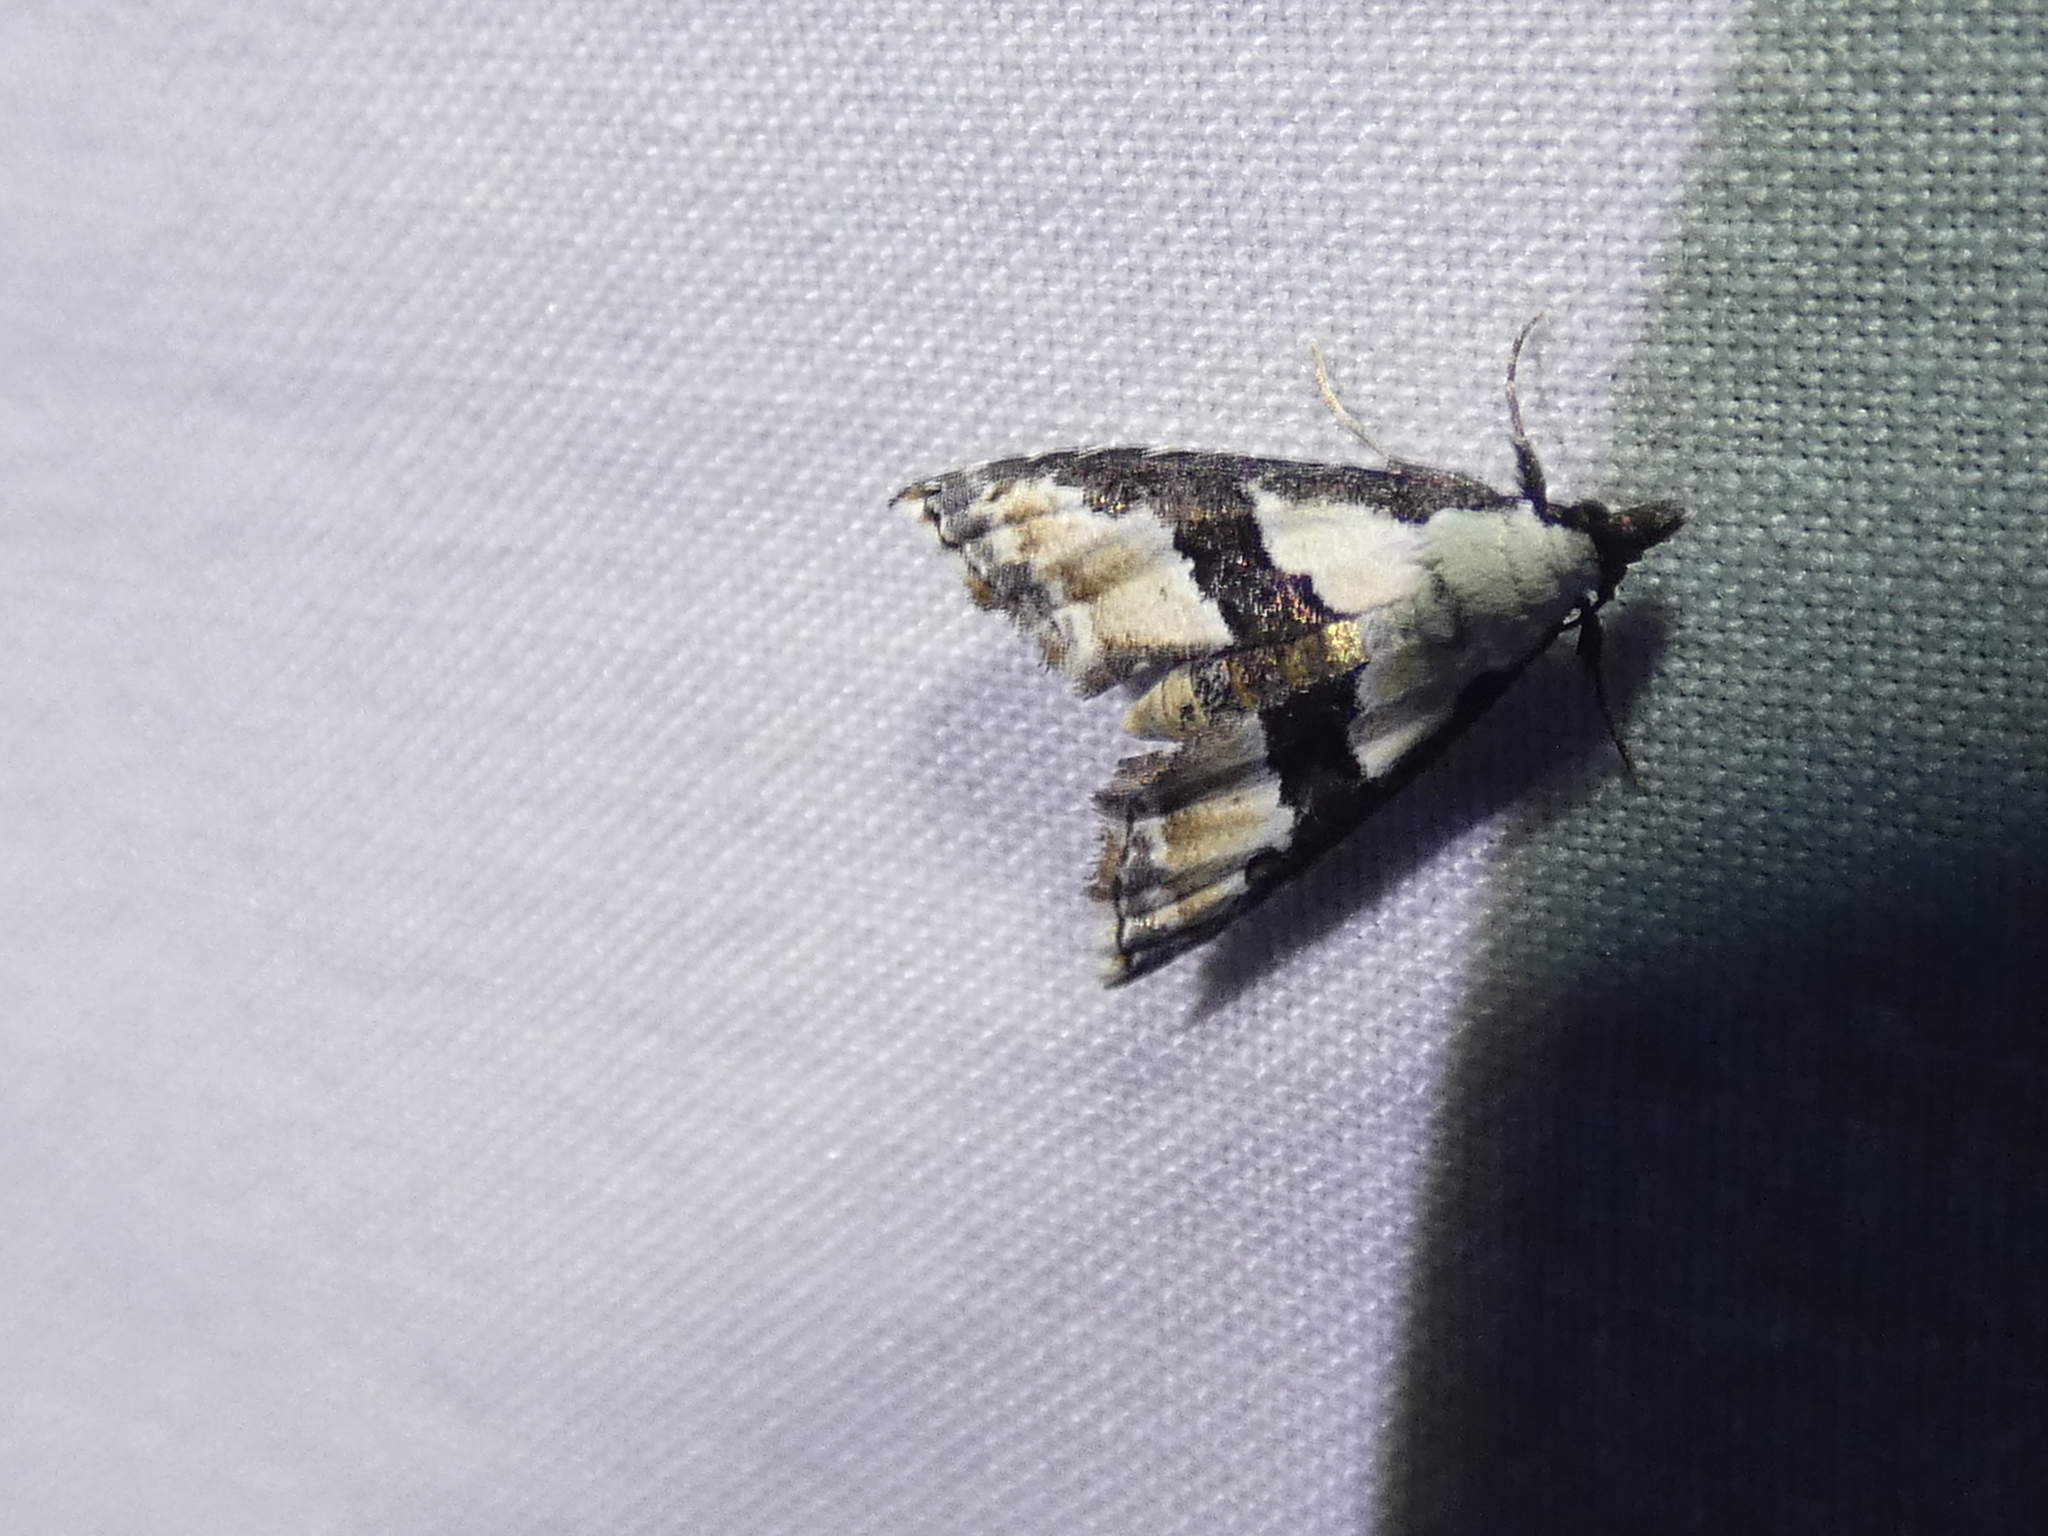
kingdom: Animalia
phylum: Arthropoda
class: Insecta
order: Lepidoptera
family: Noctuidae
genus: Nigetia
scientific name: Nigetia formosalis
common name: Thin-winged owlet
